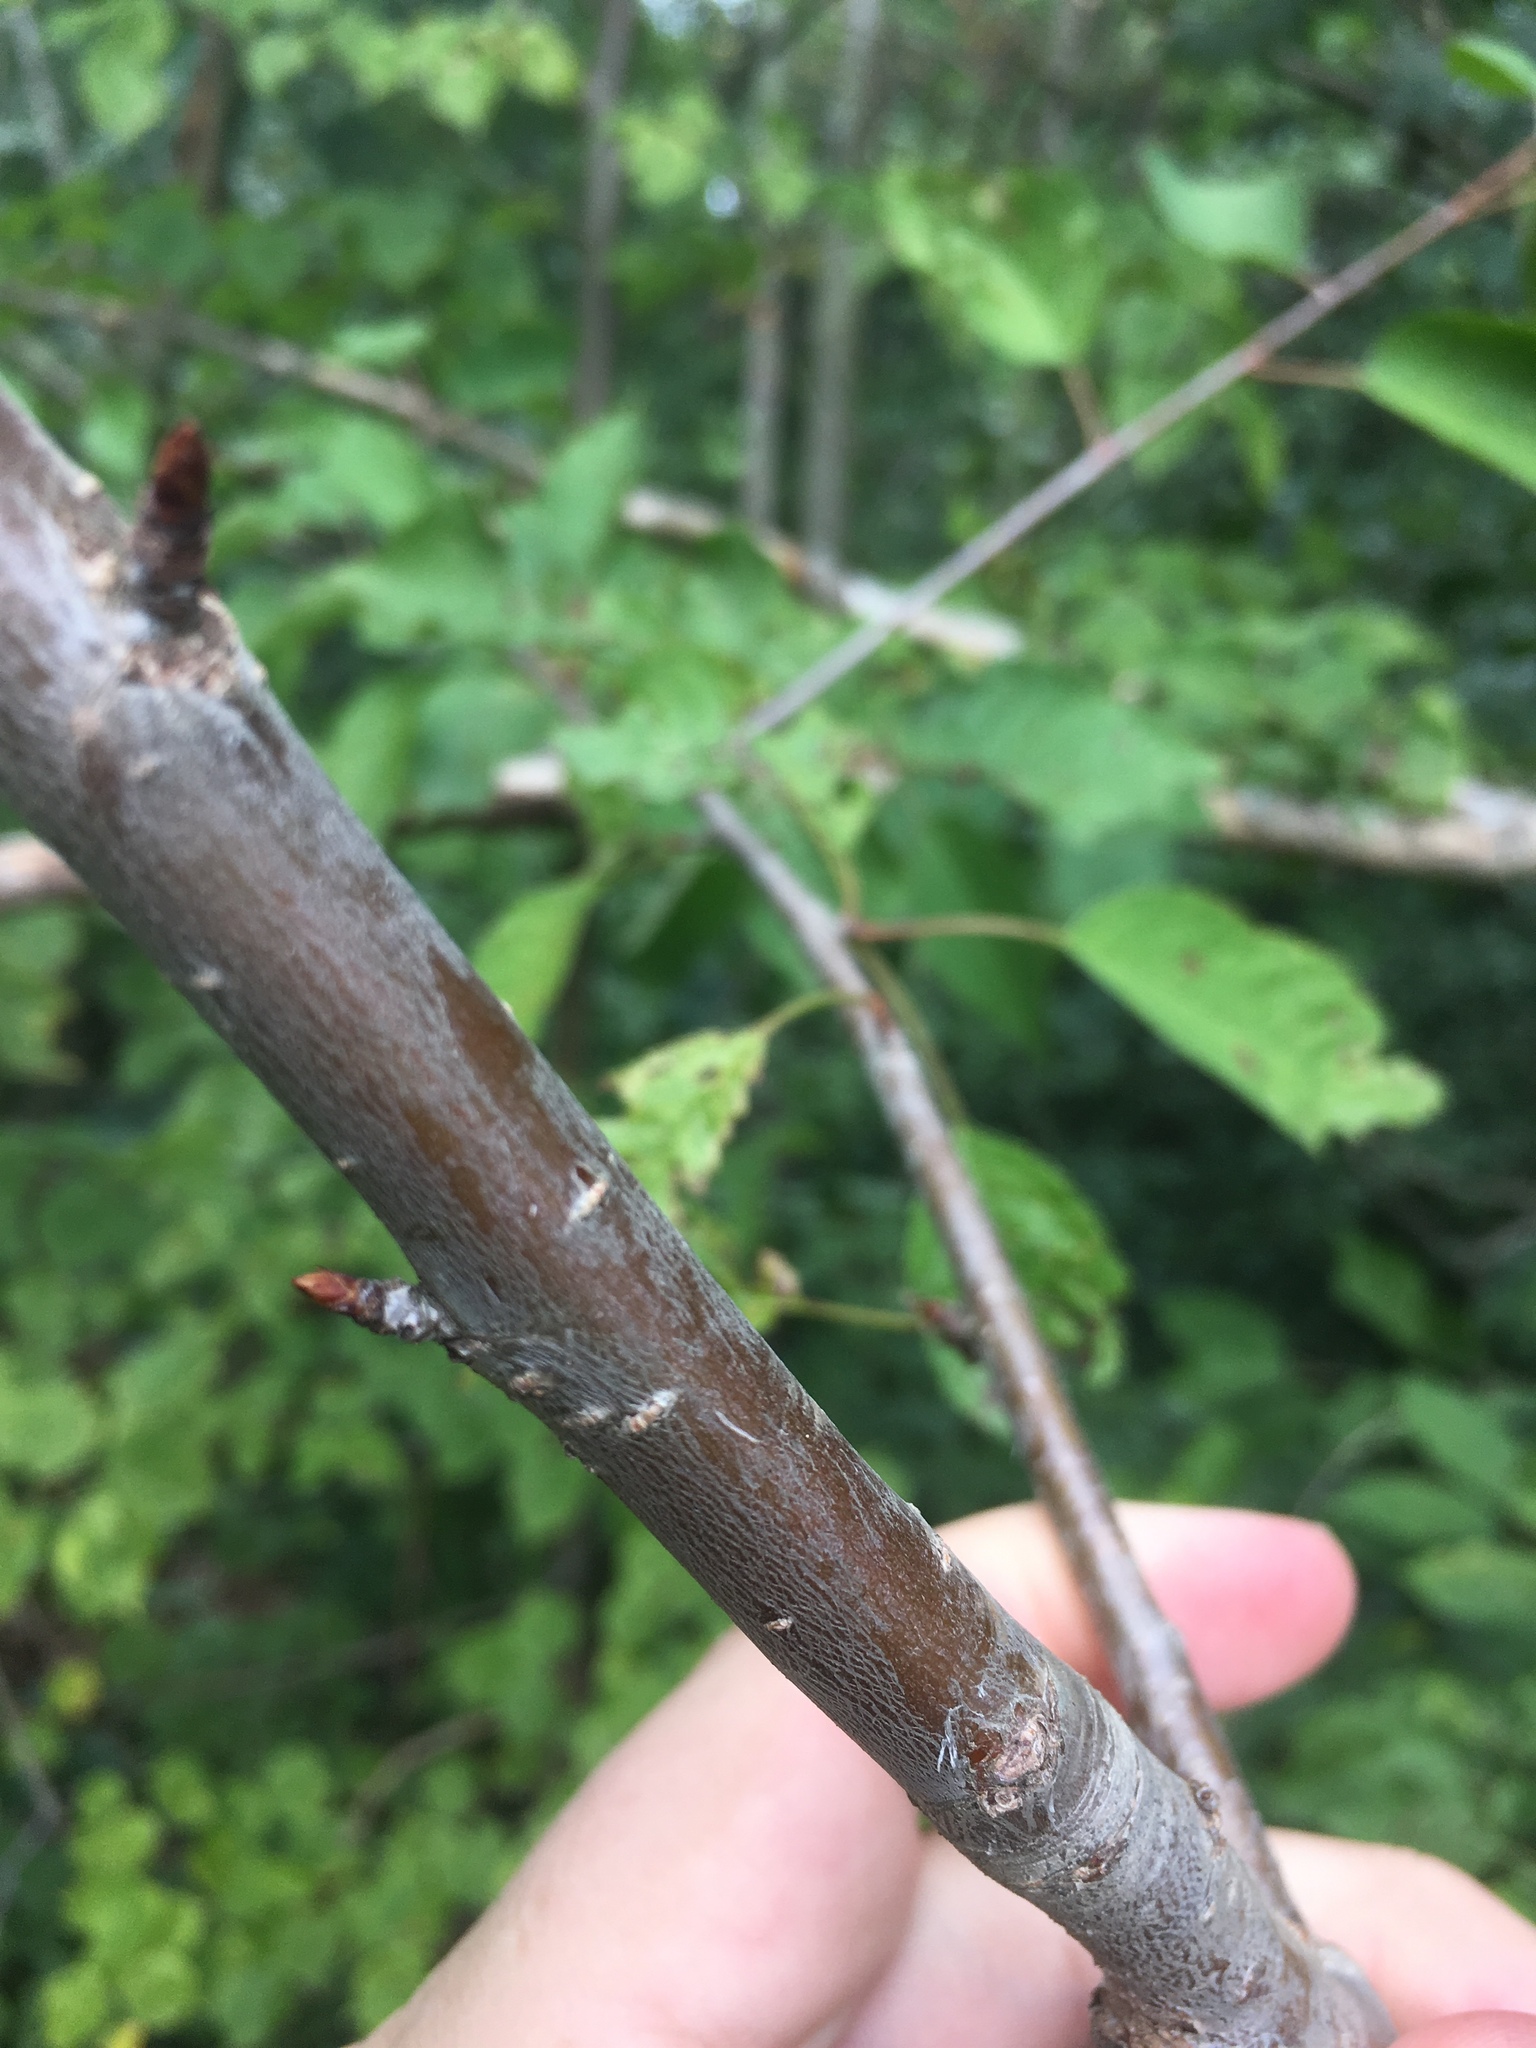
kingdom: Plantae
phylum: Tracheophyta
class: Magnoliopsida
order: Rosales
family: Rosaceae
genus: Prunus
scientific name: Prunus avium
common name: Sweet cherry
